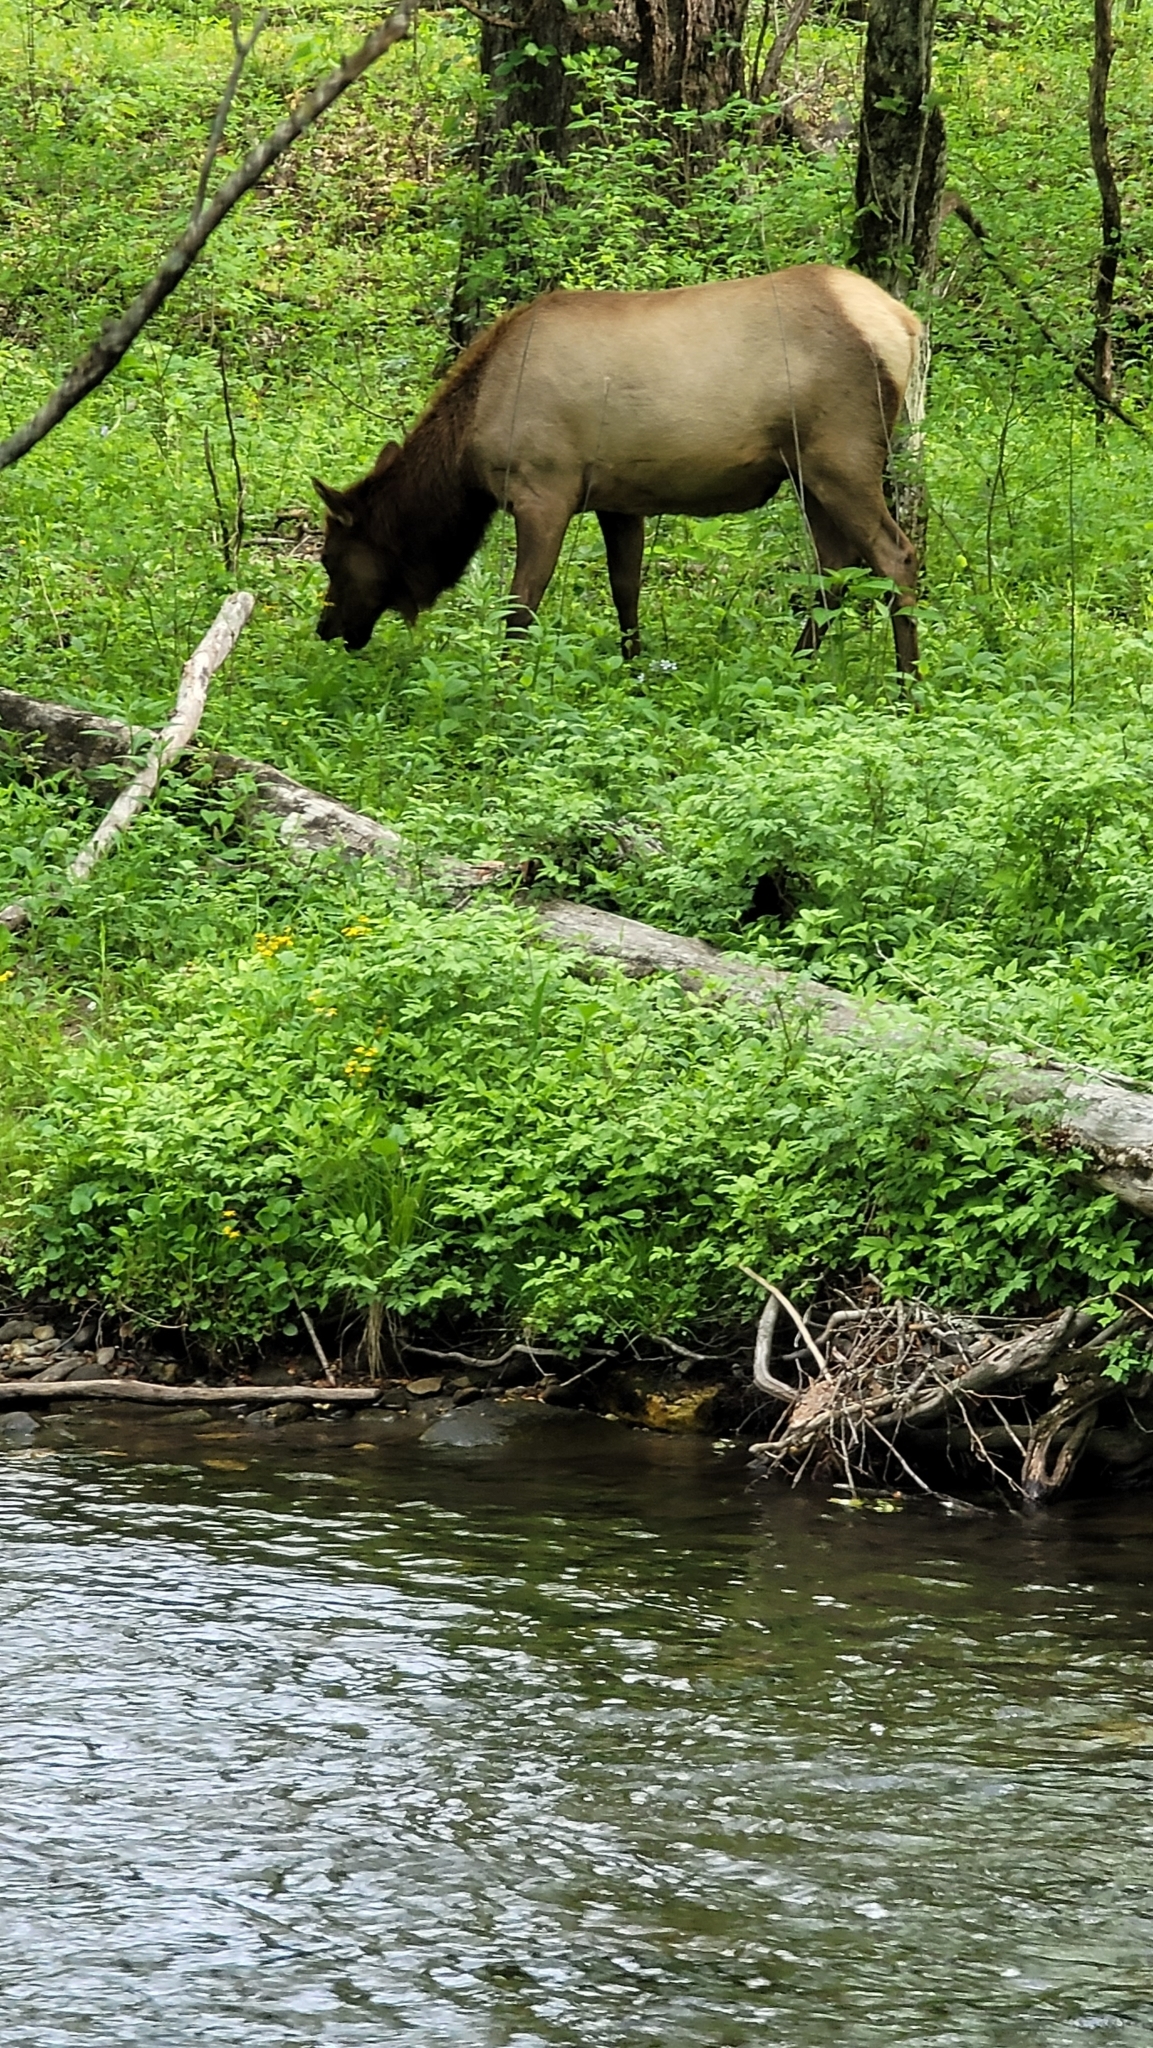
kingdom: Animalia
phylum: Chordata
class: Mammalia
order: Artiodactyla
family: Cervidae
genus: Cervus
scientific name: Cervus elaphus
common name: Red deer
